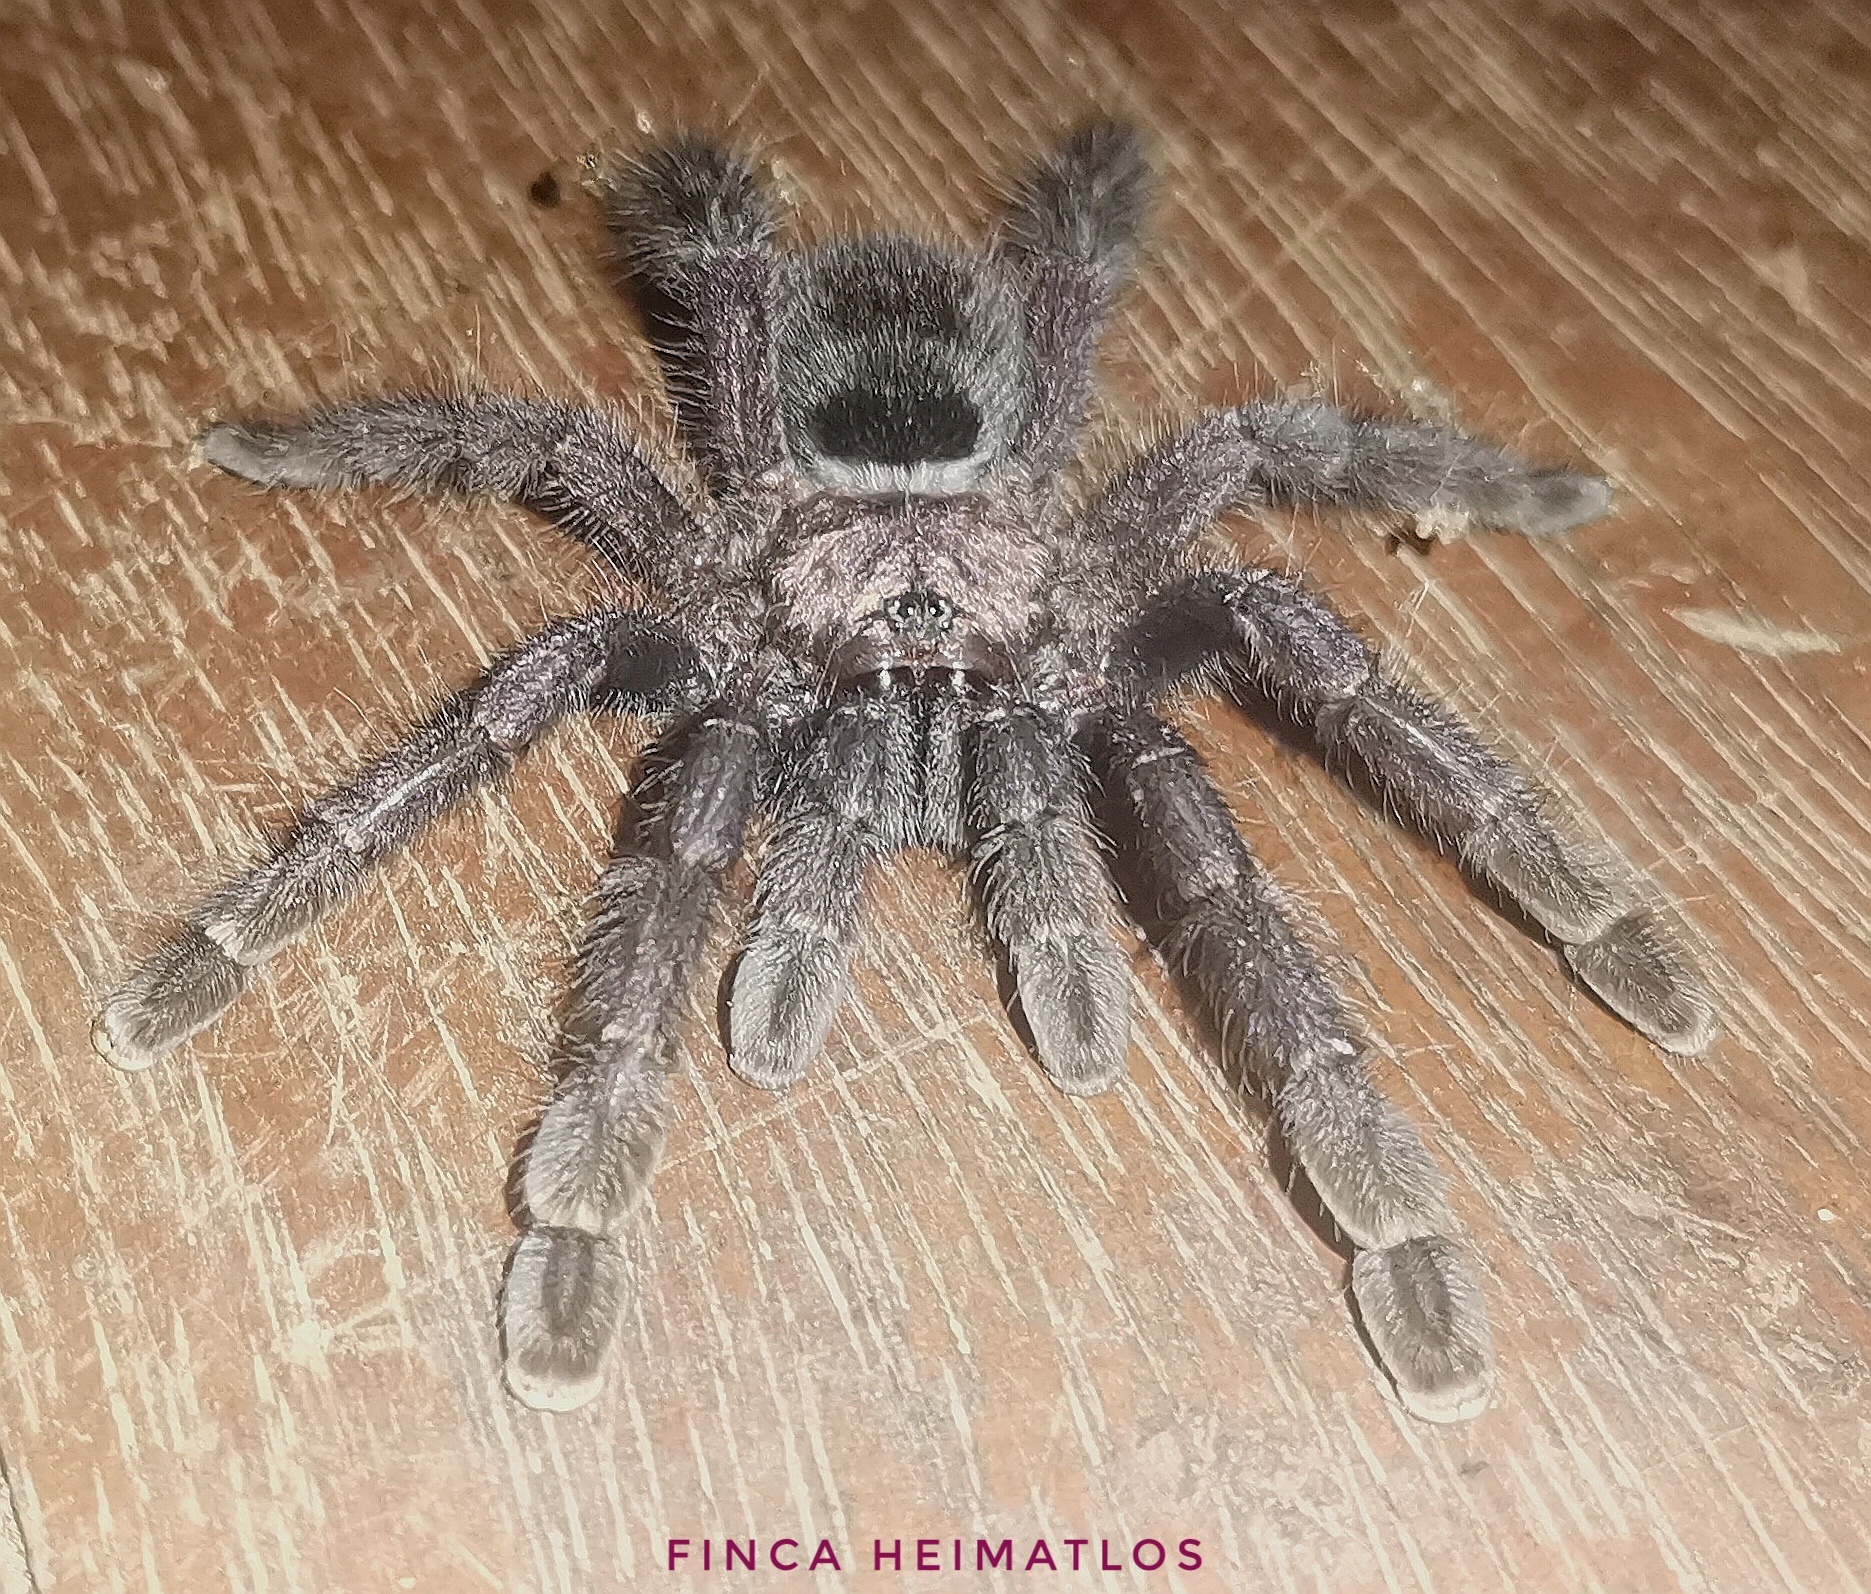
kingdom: Animalia
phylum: Arthropoda
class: Arachnida
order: Araneae
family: Theraphosidae
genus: Avicularia
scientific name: Avicularia purpurea
